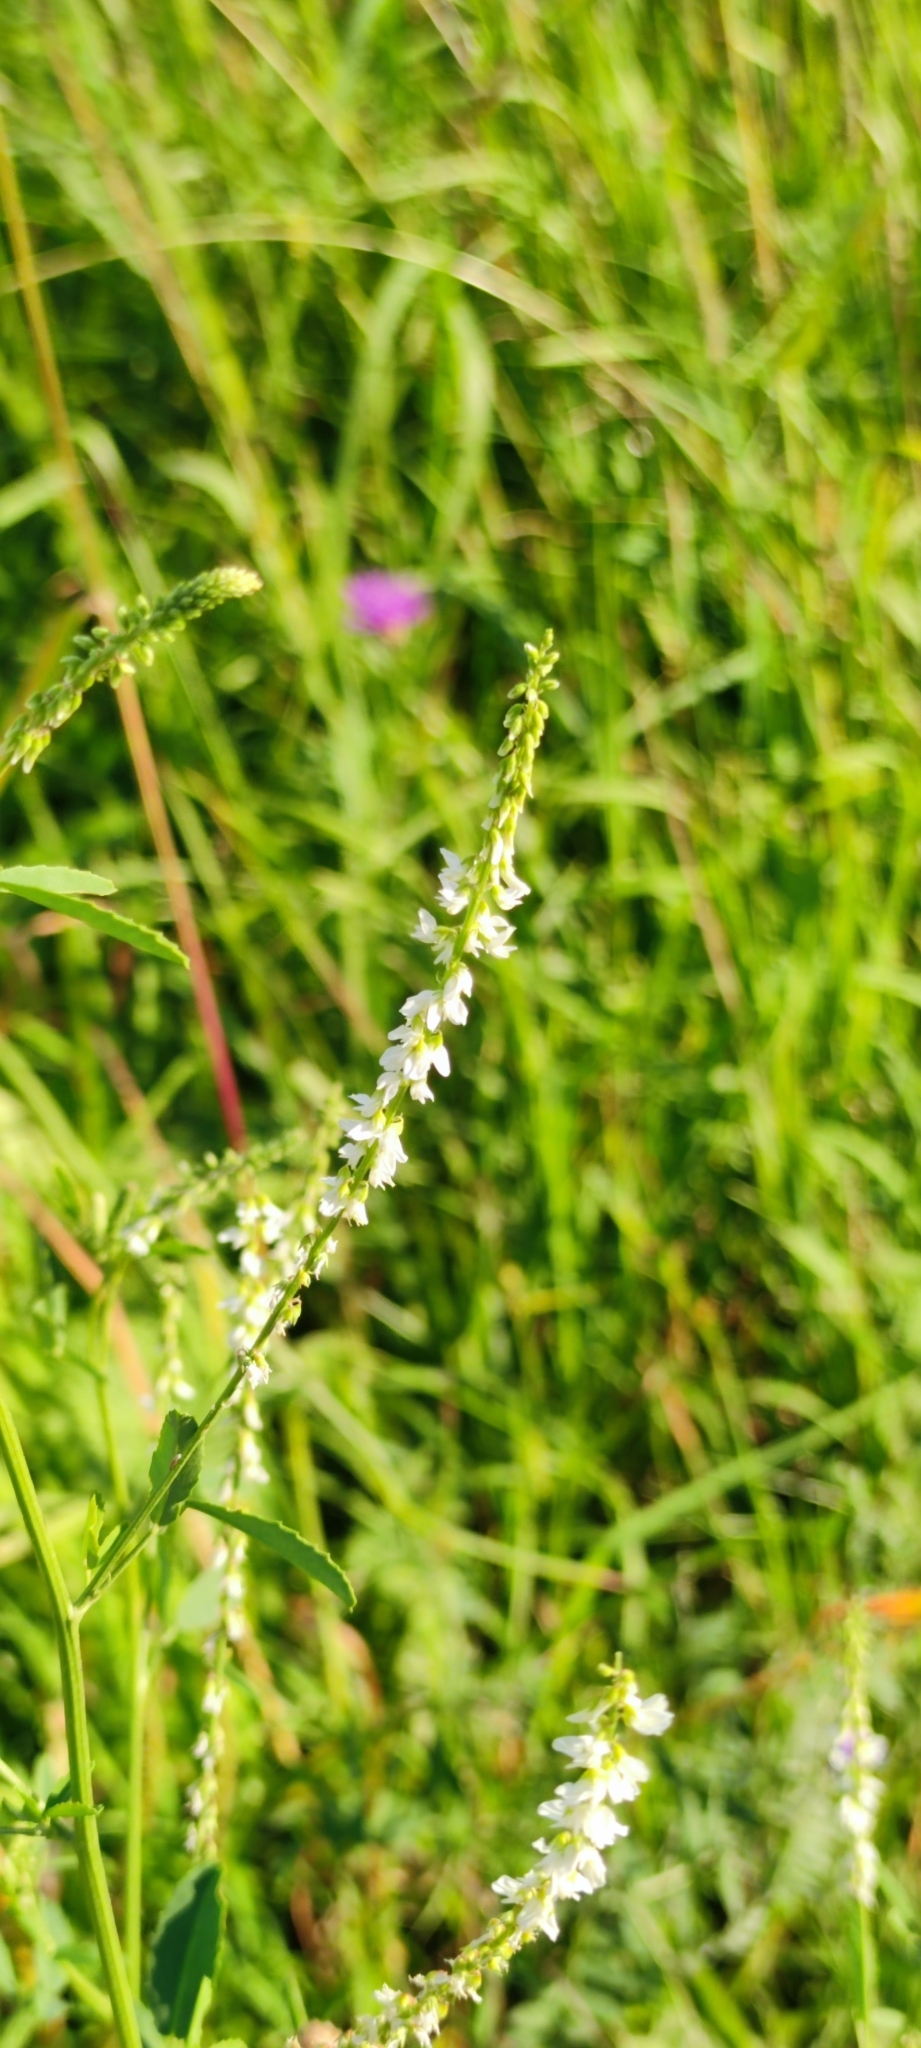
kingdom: Plantae
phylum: Tracheophyta
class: Magnoliopsida
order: Fabales
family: Fabaceae
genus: Melilotus
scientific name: Melilotus albus
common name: White melilot
